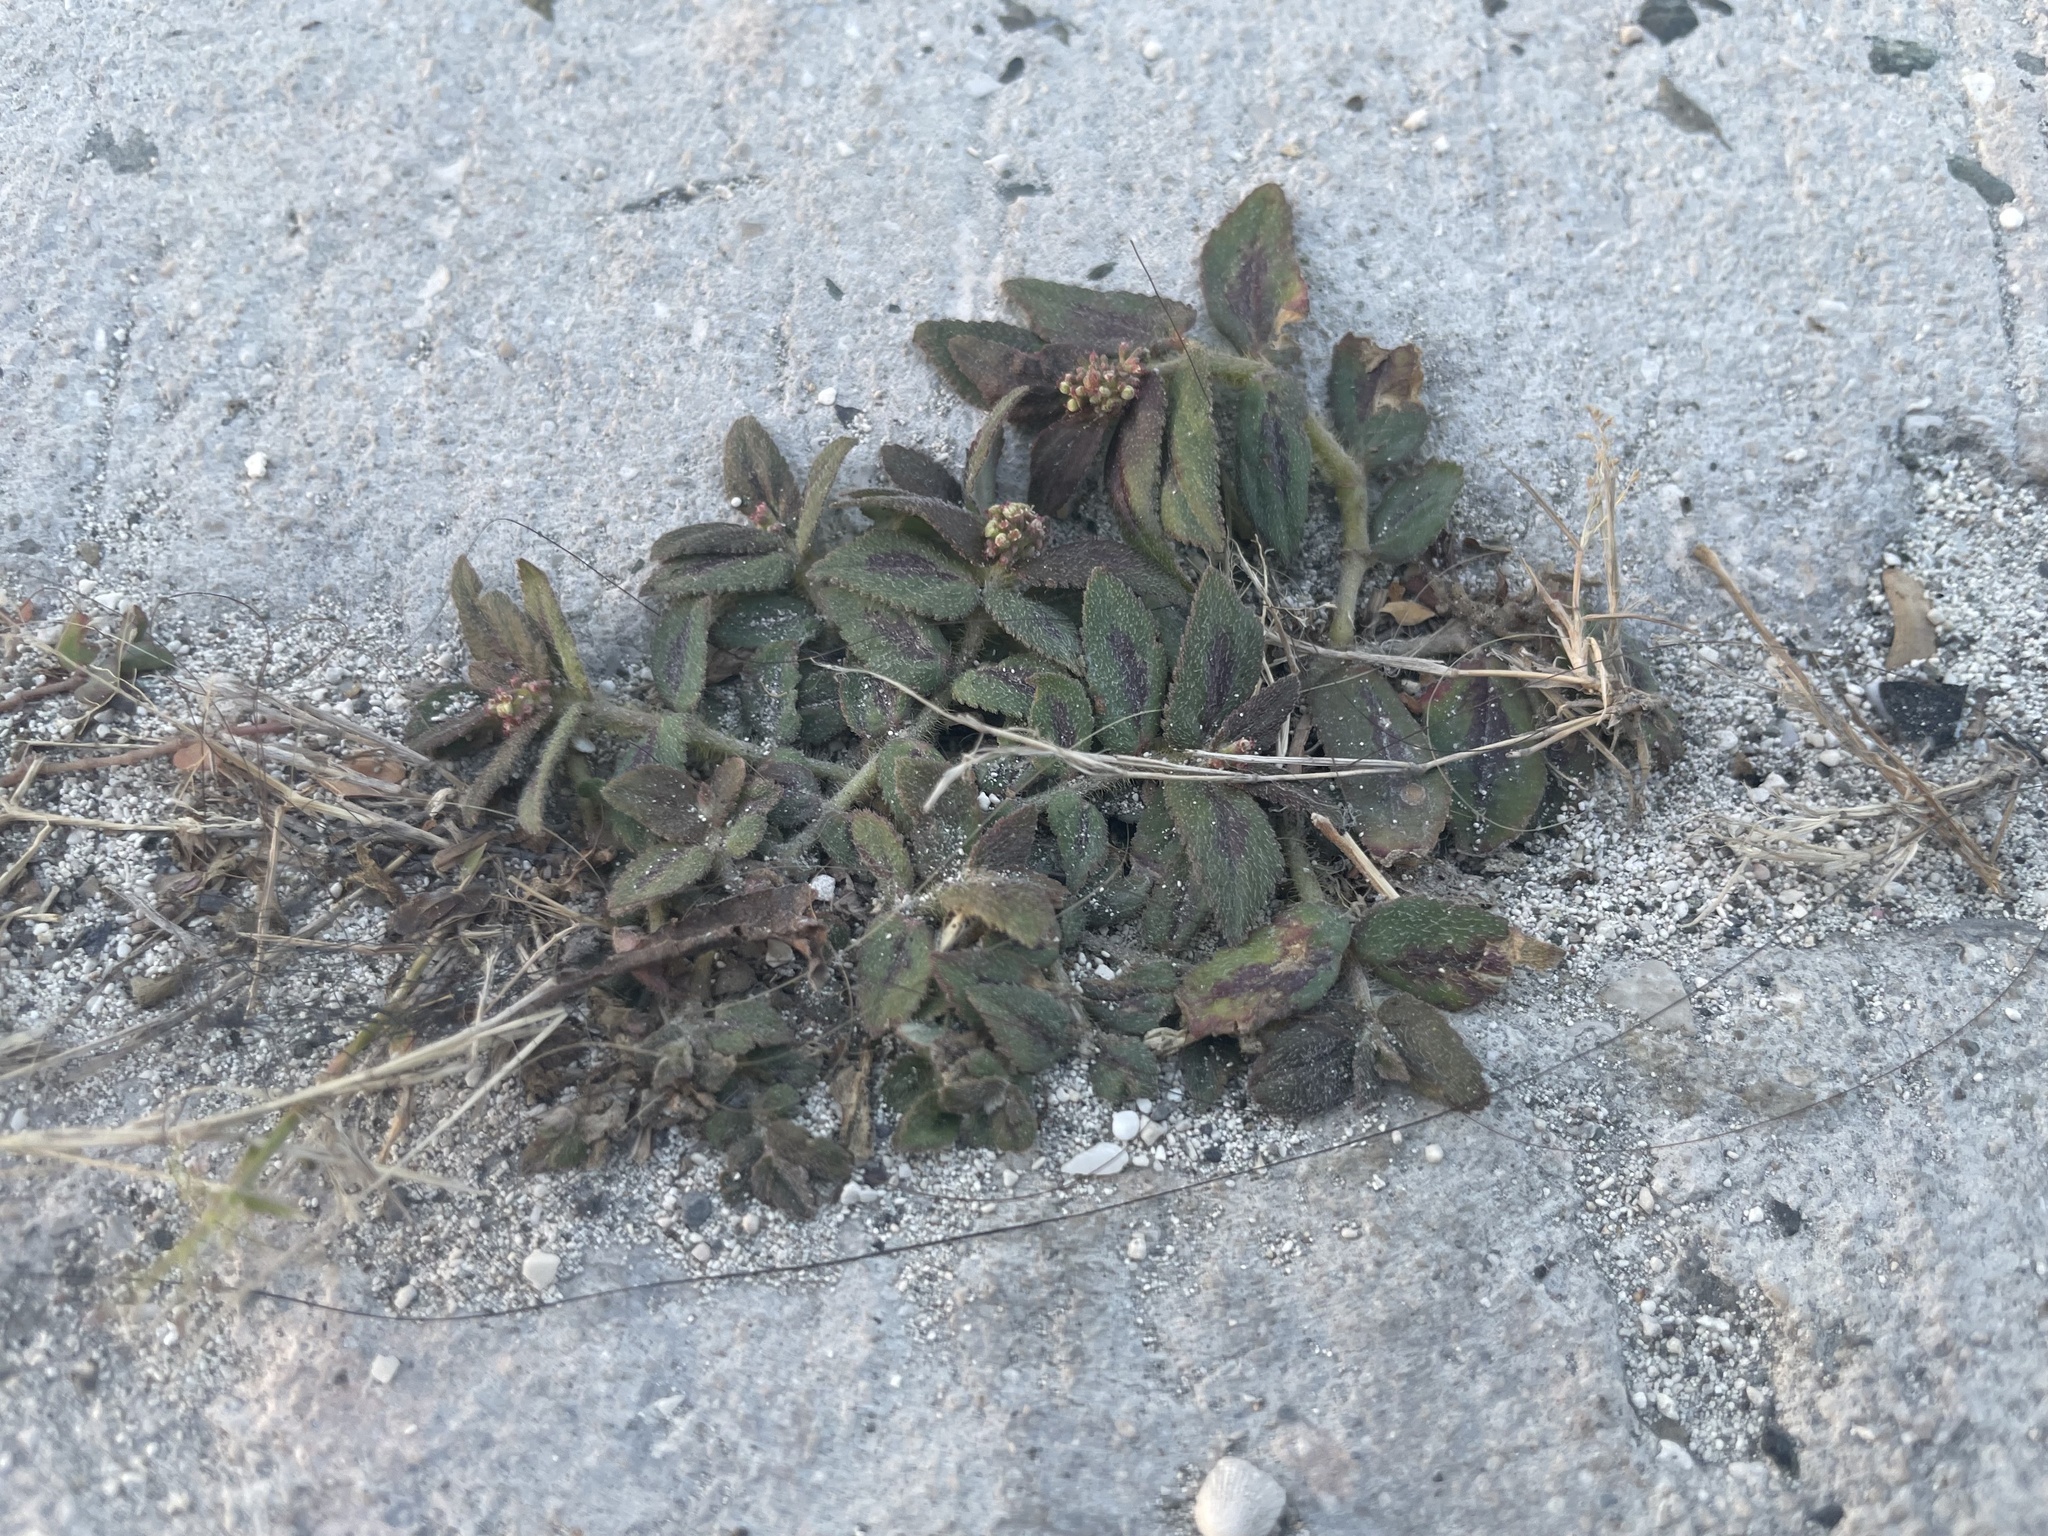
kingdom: Plantae
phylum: Tracheophyta
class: Magnoliopsida
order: Malpighiales
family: Euphorbiaceae
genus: Euphorbia
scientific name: Euphorbia hirta
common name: Pillpod sandmat
